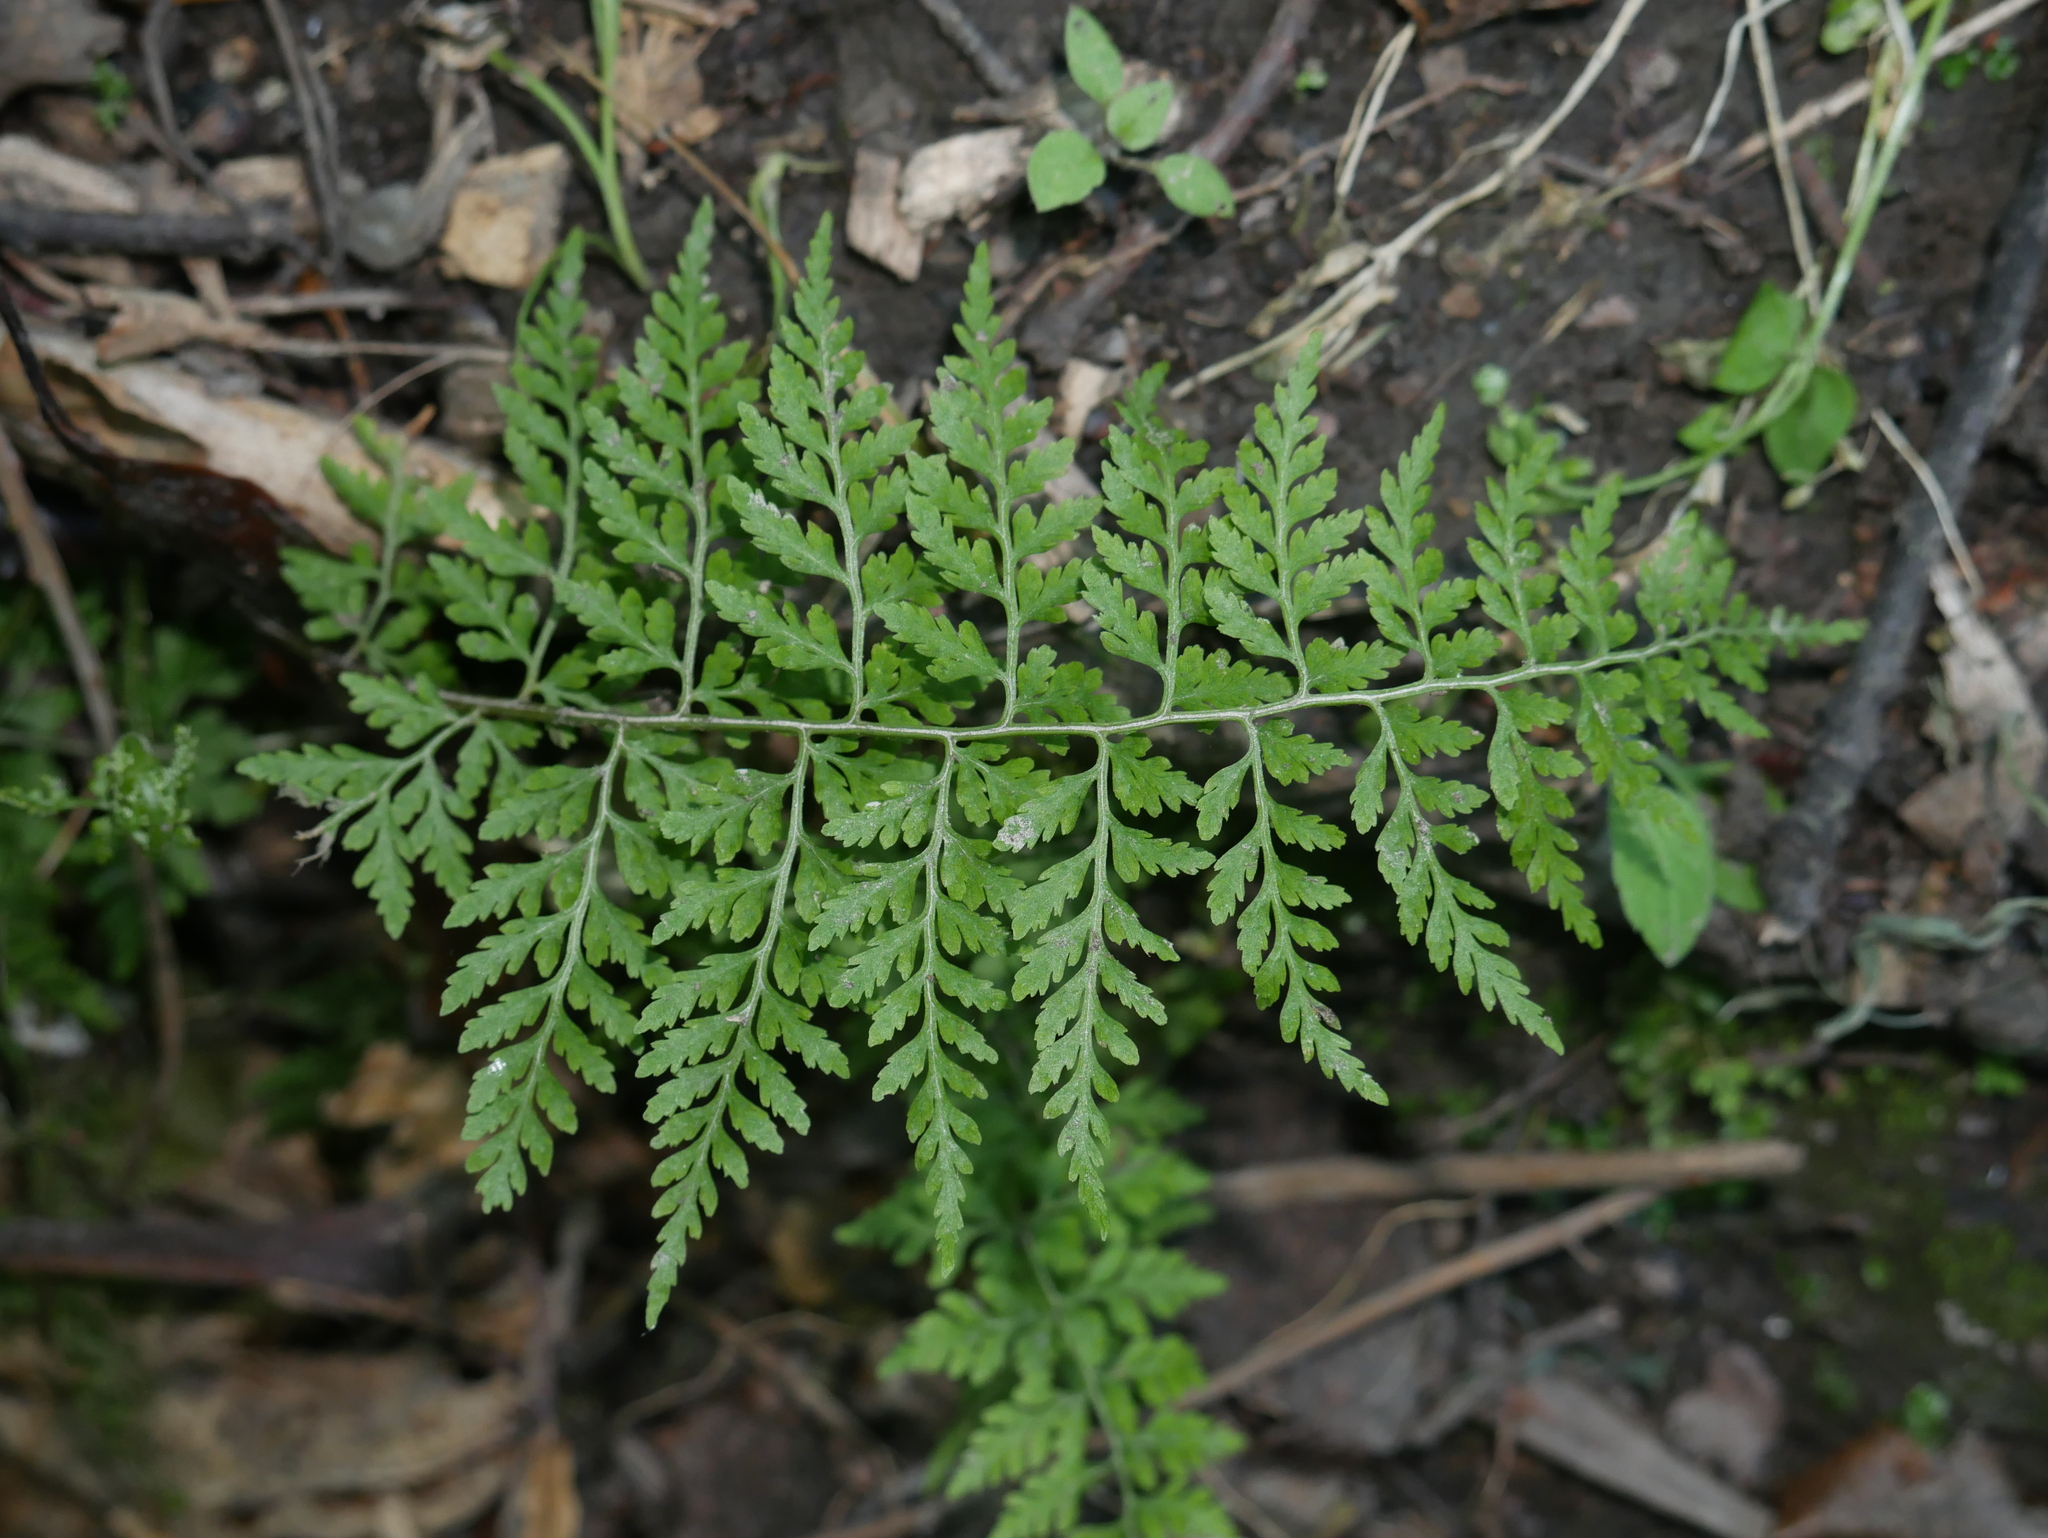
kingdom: Plantae
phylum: Tracheophyta
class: Polypodiopsida
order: Polypodiales
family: Cystopteridaceae
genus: Cystopteris
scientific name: Cystopteris fragilis
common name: Brittle bladder fern
